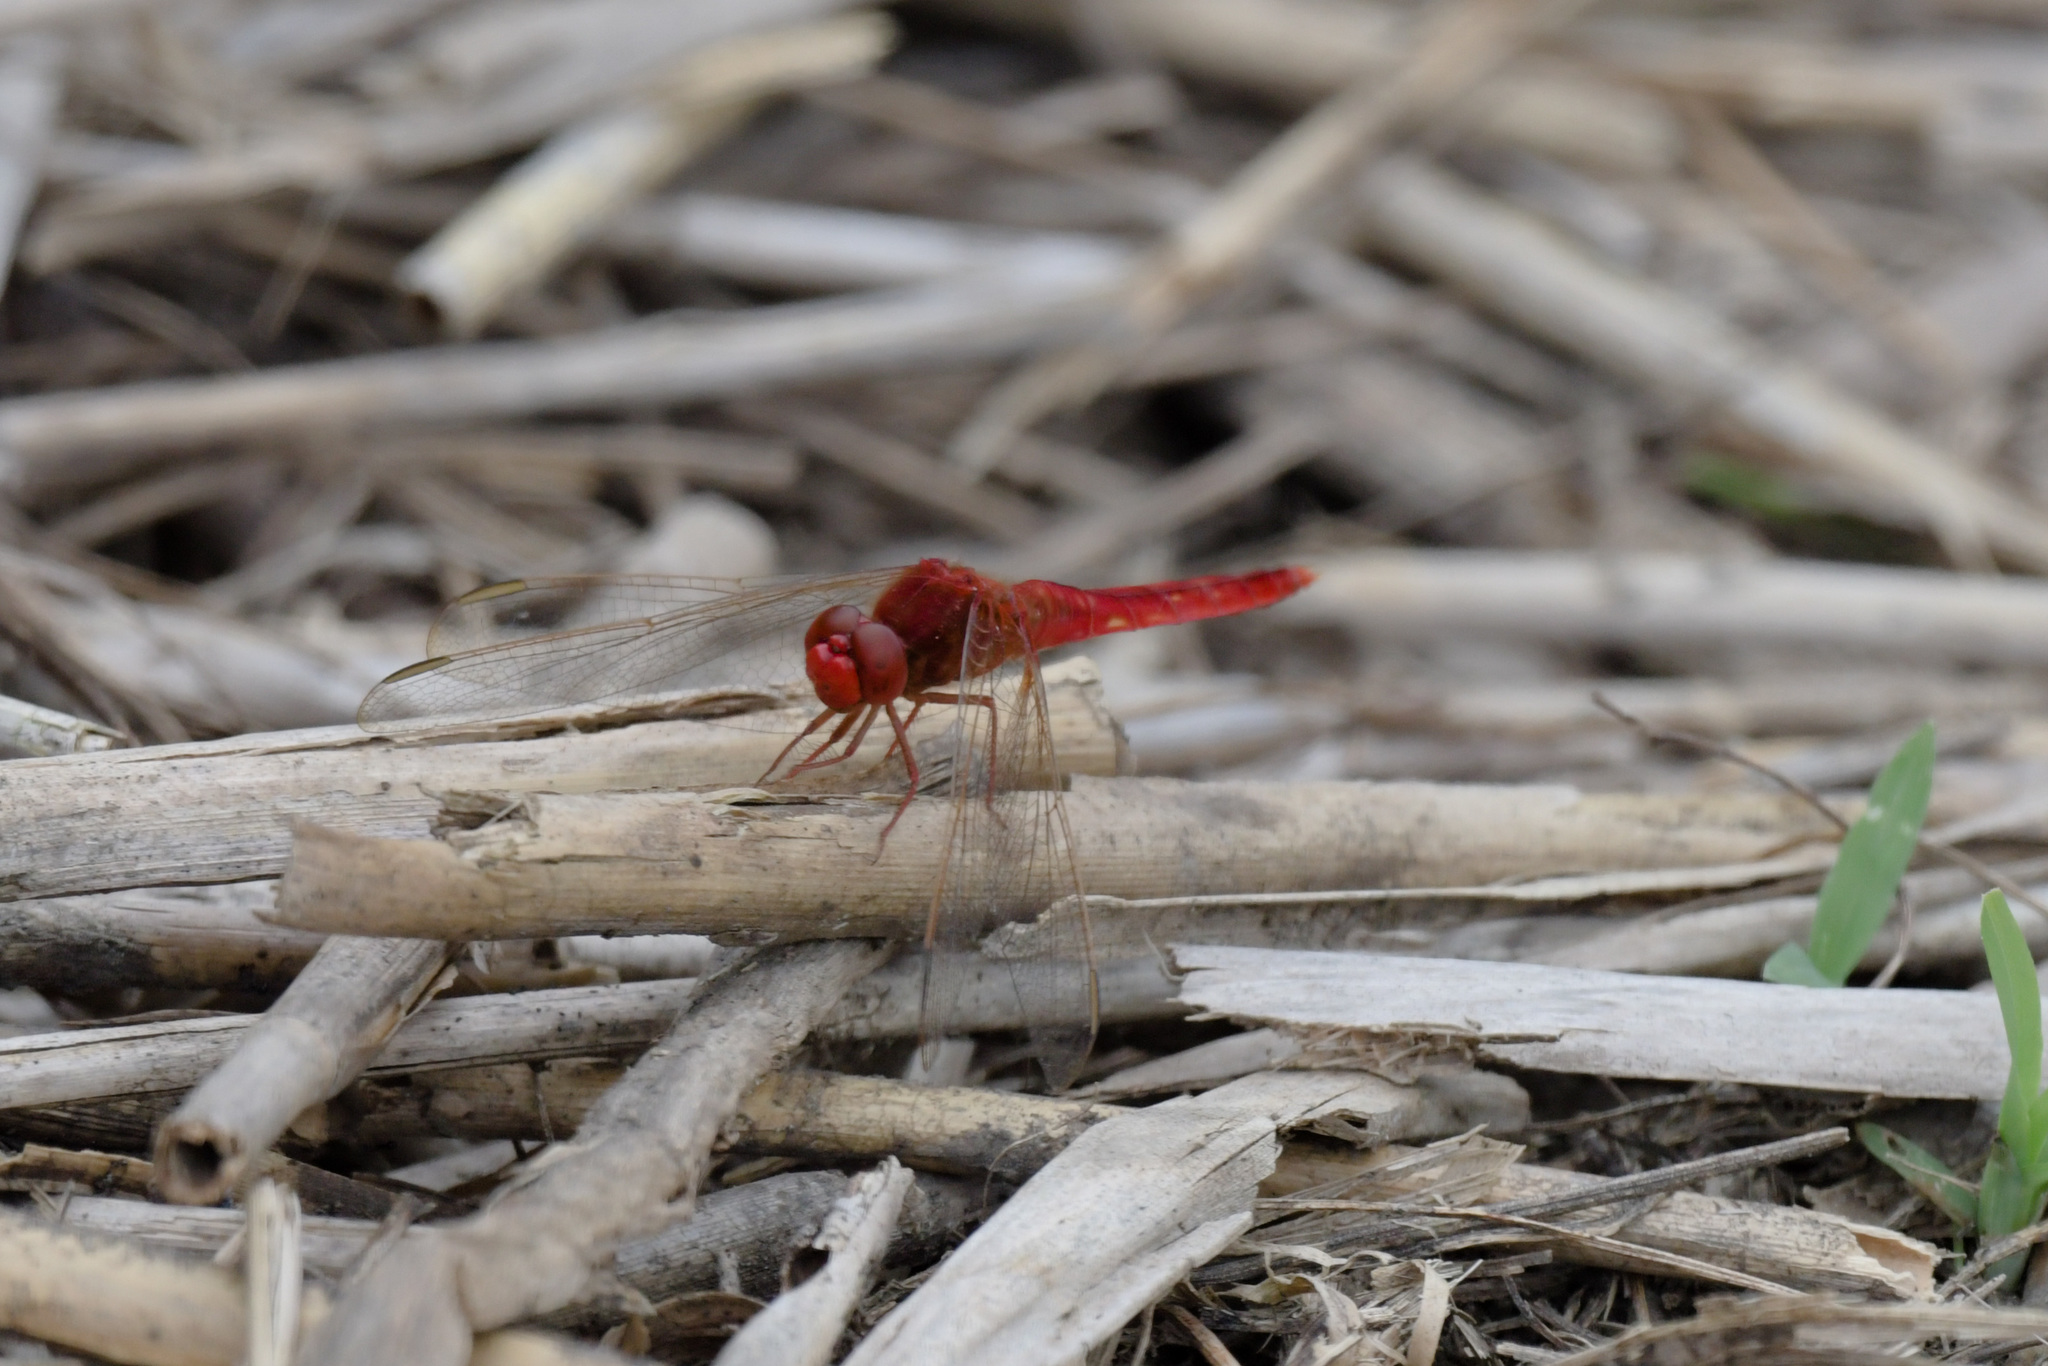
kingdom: Animalia
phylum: Arthropoda
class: Insecta
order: Odonata
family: Libellulidae
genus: Crocothemis
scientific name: Crocothemis servilia
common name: Scarlet skimmer
